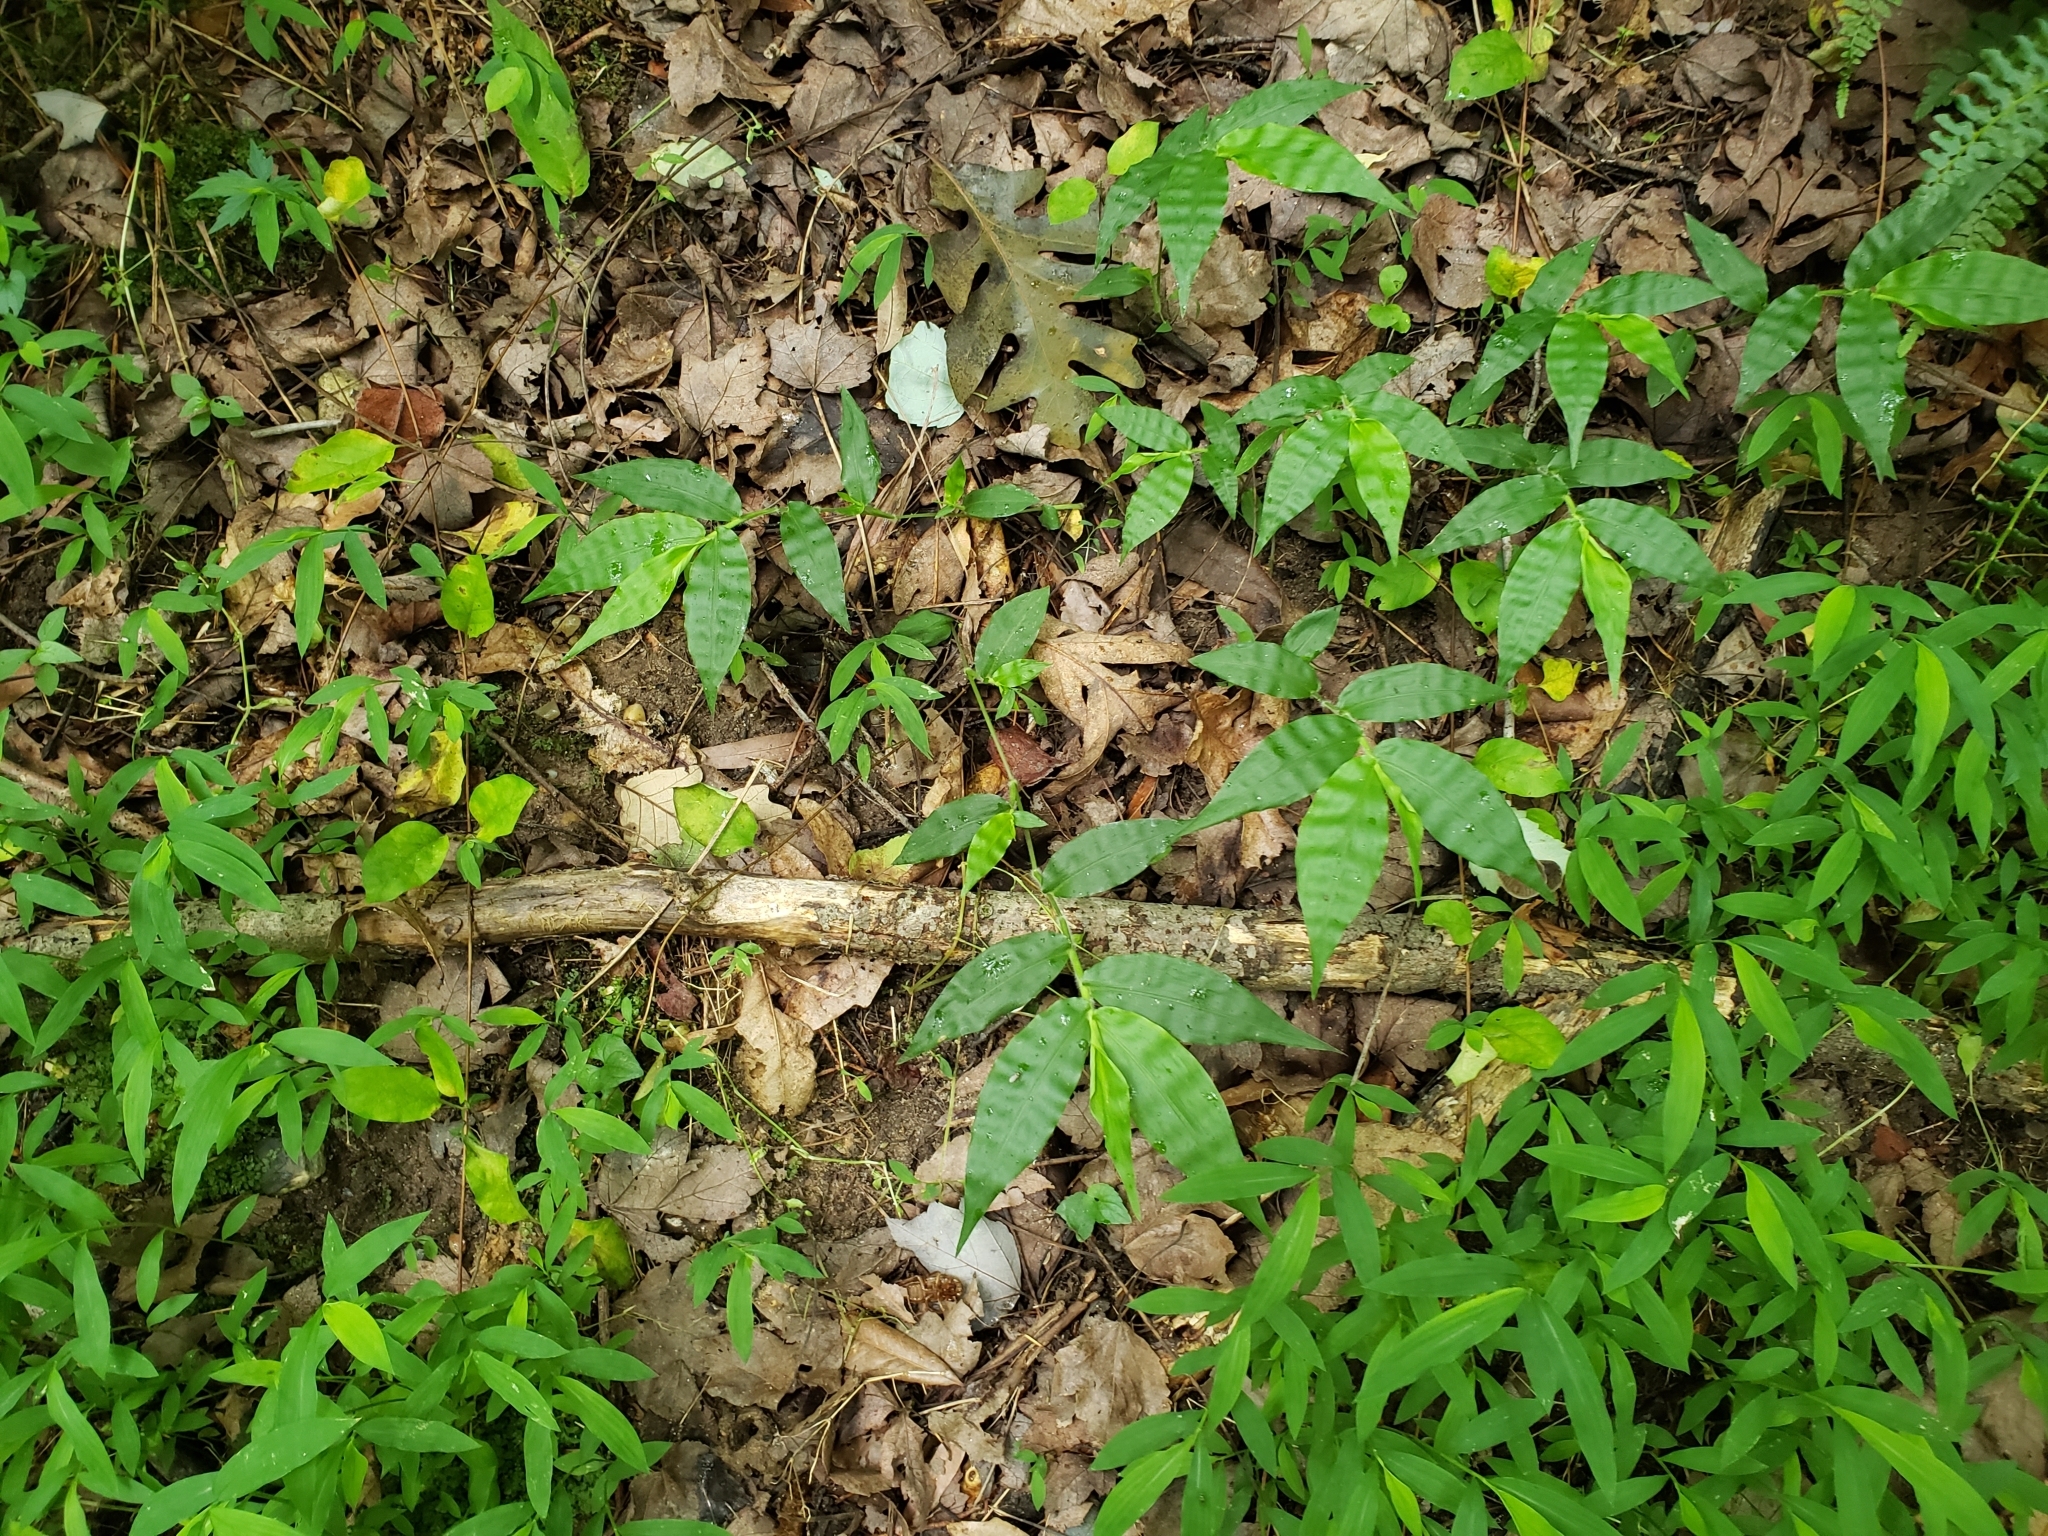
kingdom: Plantae
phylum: Tracheophyta
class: Liliopsida
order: Poales
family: Poaceae
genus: Oplismenus
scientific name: Oplismenus undulatifolius
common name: Wavyleaf basketgrass
